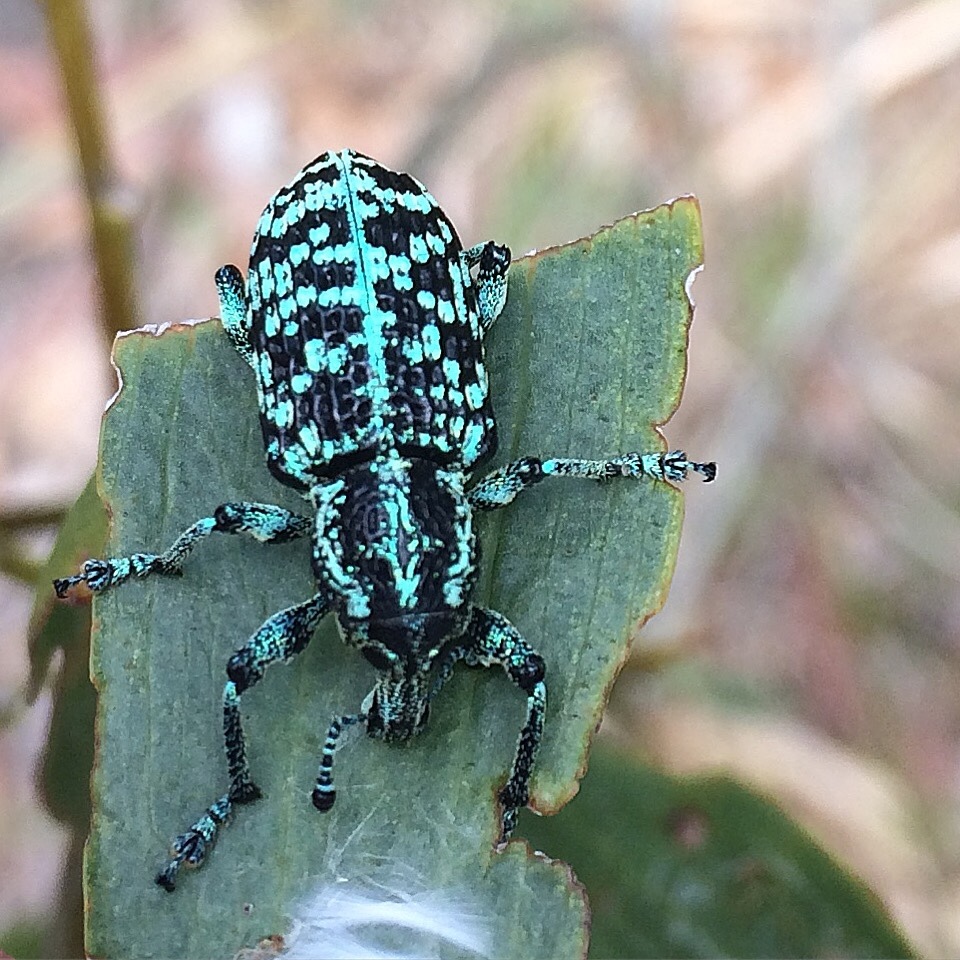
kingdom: Animalia
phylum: Arthropoda
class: Insecta
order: Coleoptera
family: Curculionidae
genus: Chrysolopus
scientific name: Chrysolopus spectabilis
